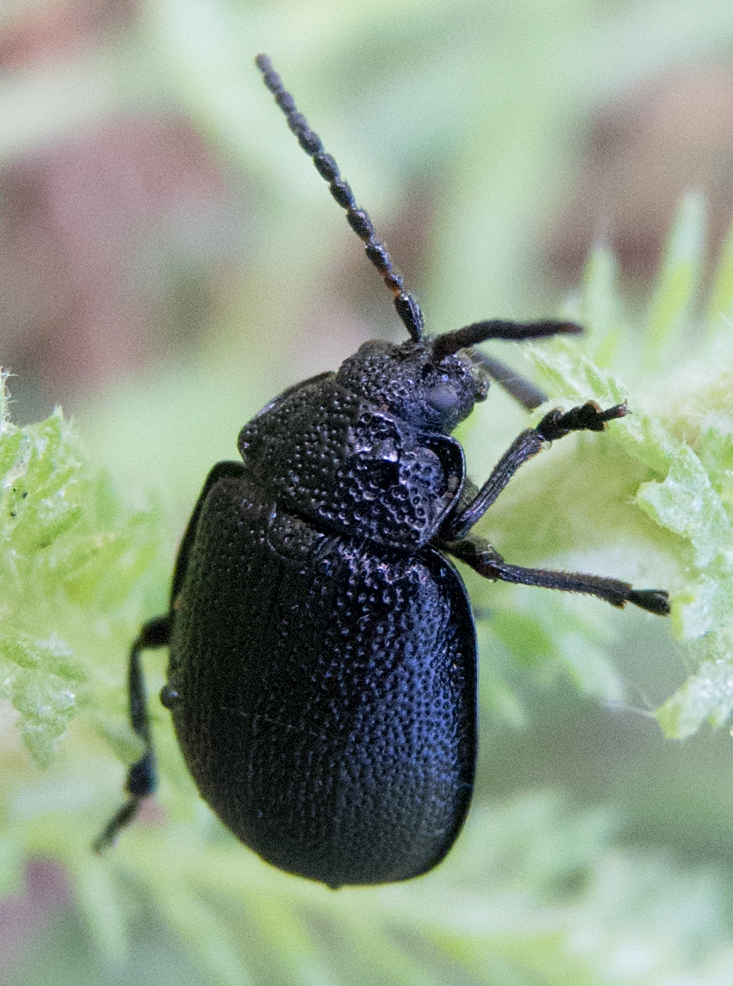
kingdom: Animalia
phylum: Arthropoda
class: Insecta
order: Coleoptera
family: Chrysomelidae
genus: Galeruca
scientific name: Galeruca tanaceti
